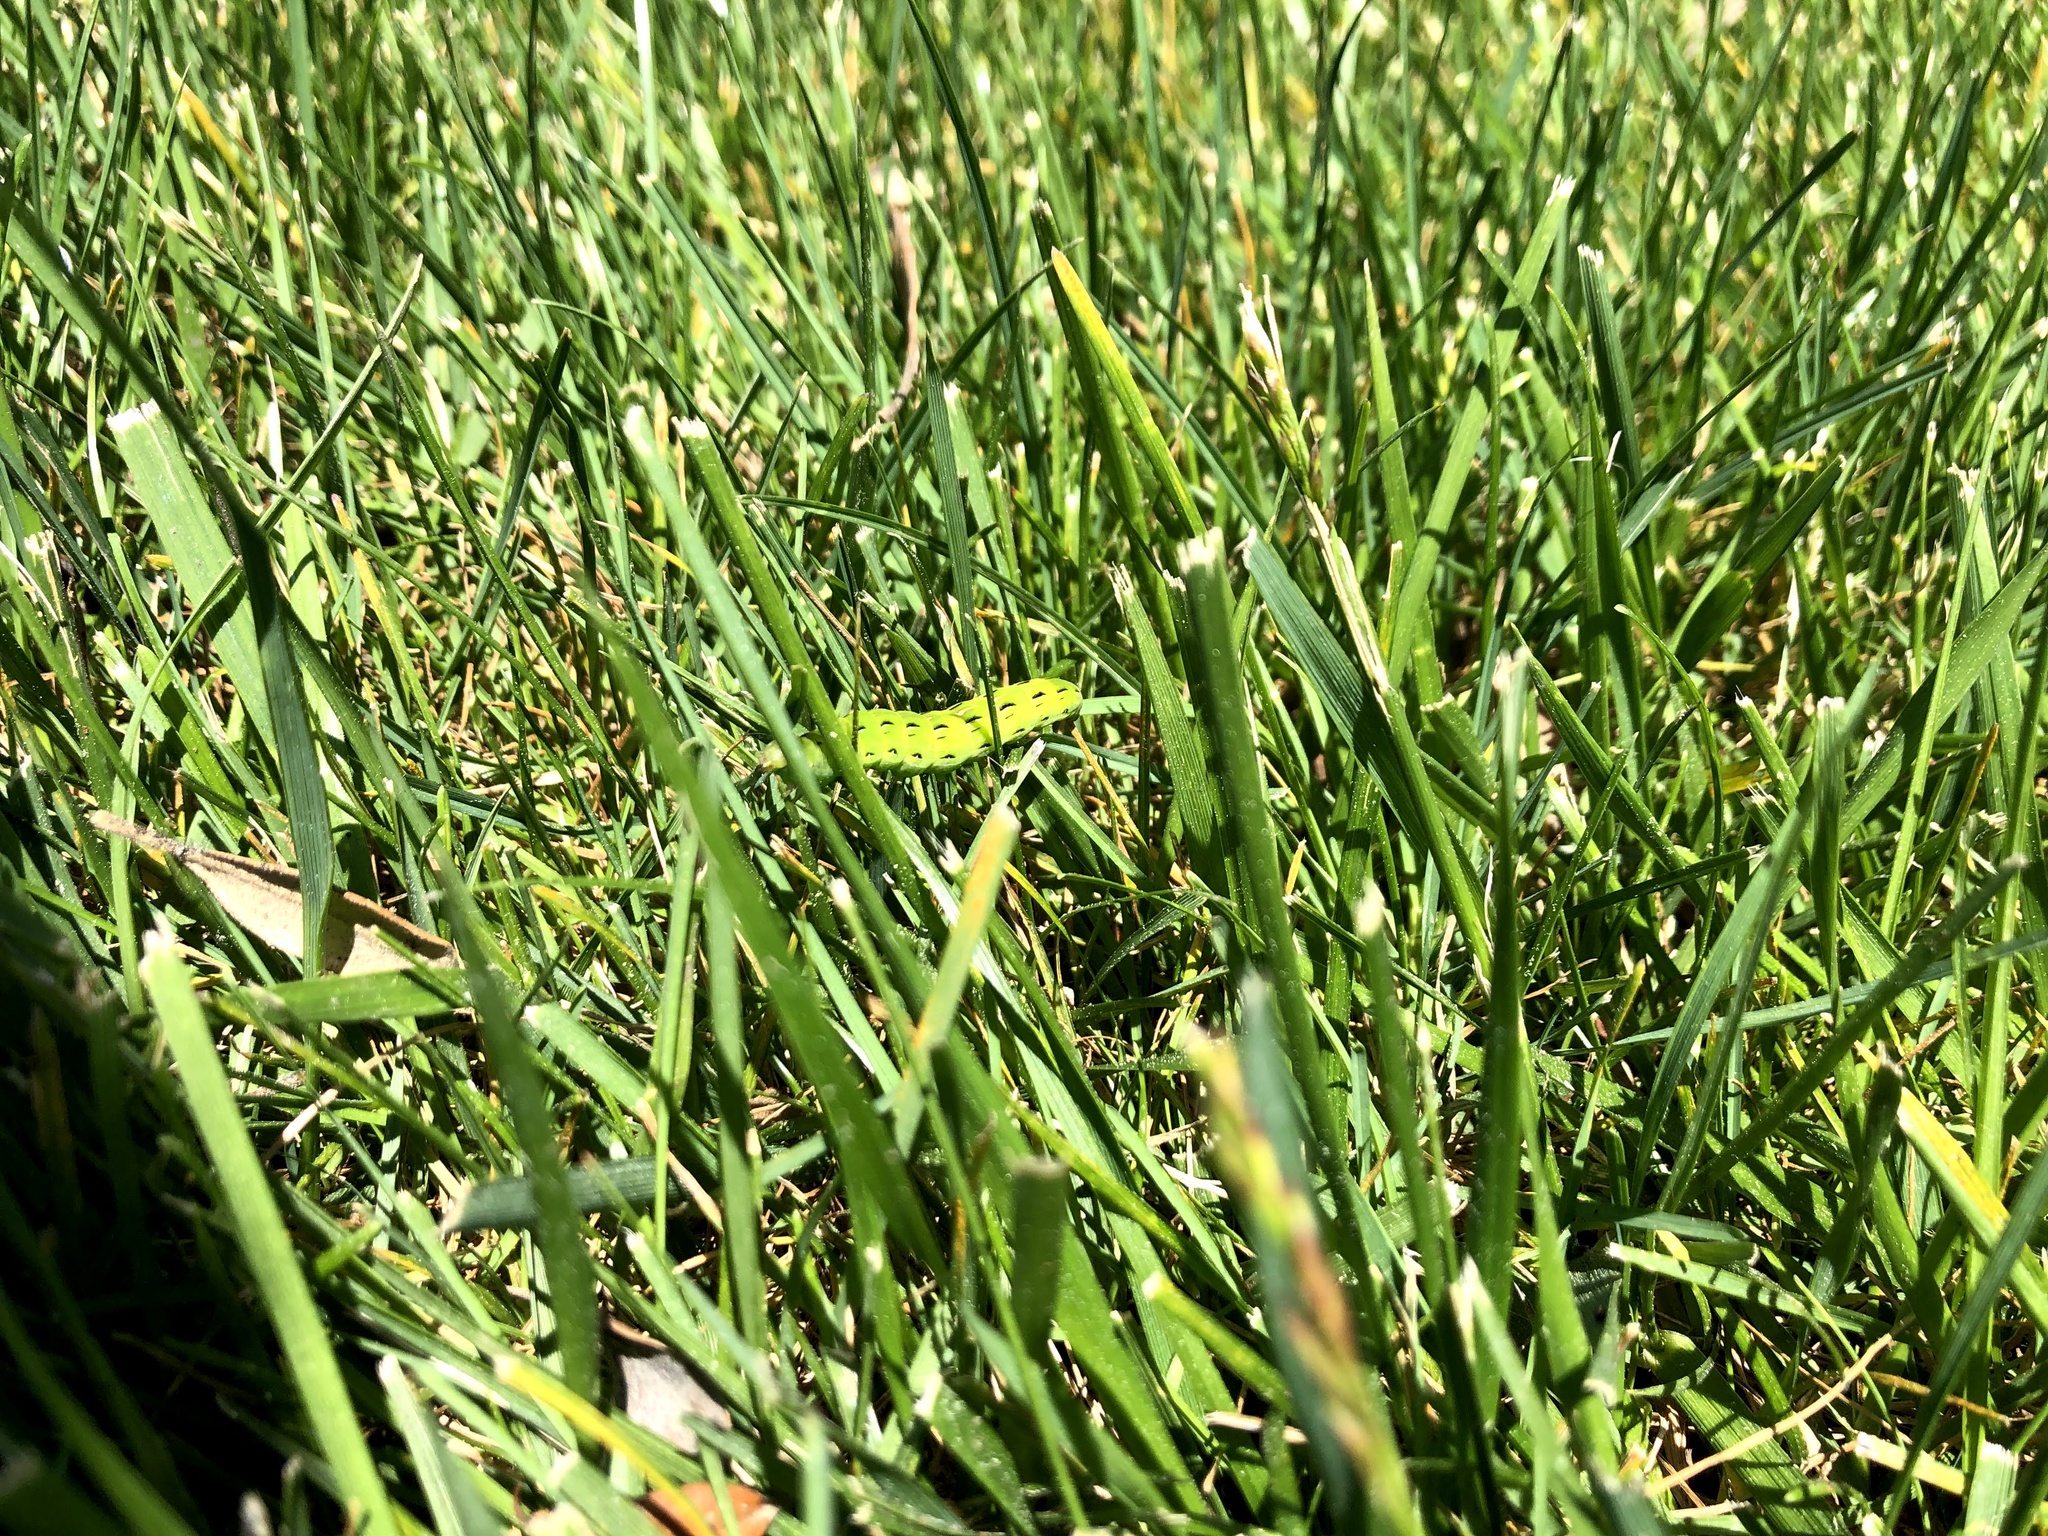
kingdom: Animalia
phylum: Arthropoda
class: Insecta
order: Lepidoptera
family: Sphingidae
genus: Hyles
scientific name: Hyles lineata
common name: White-lined sphinx
